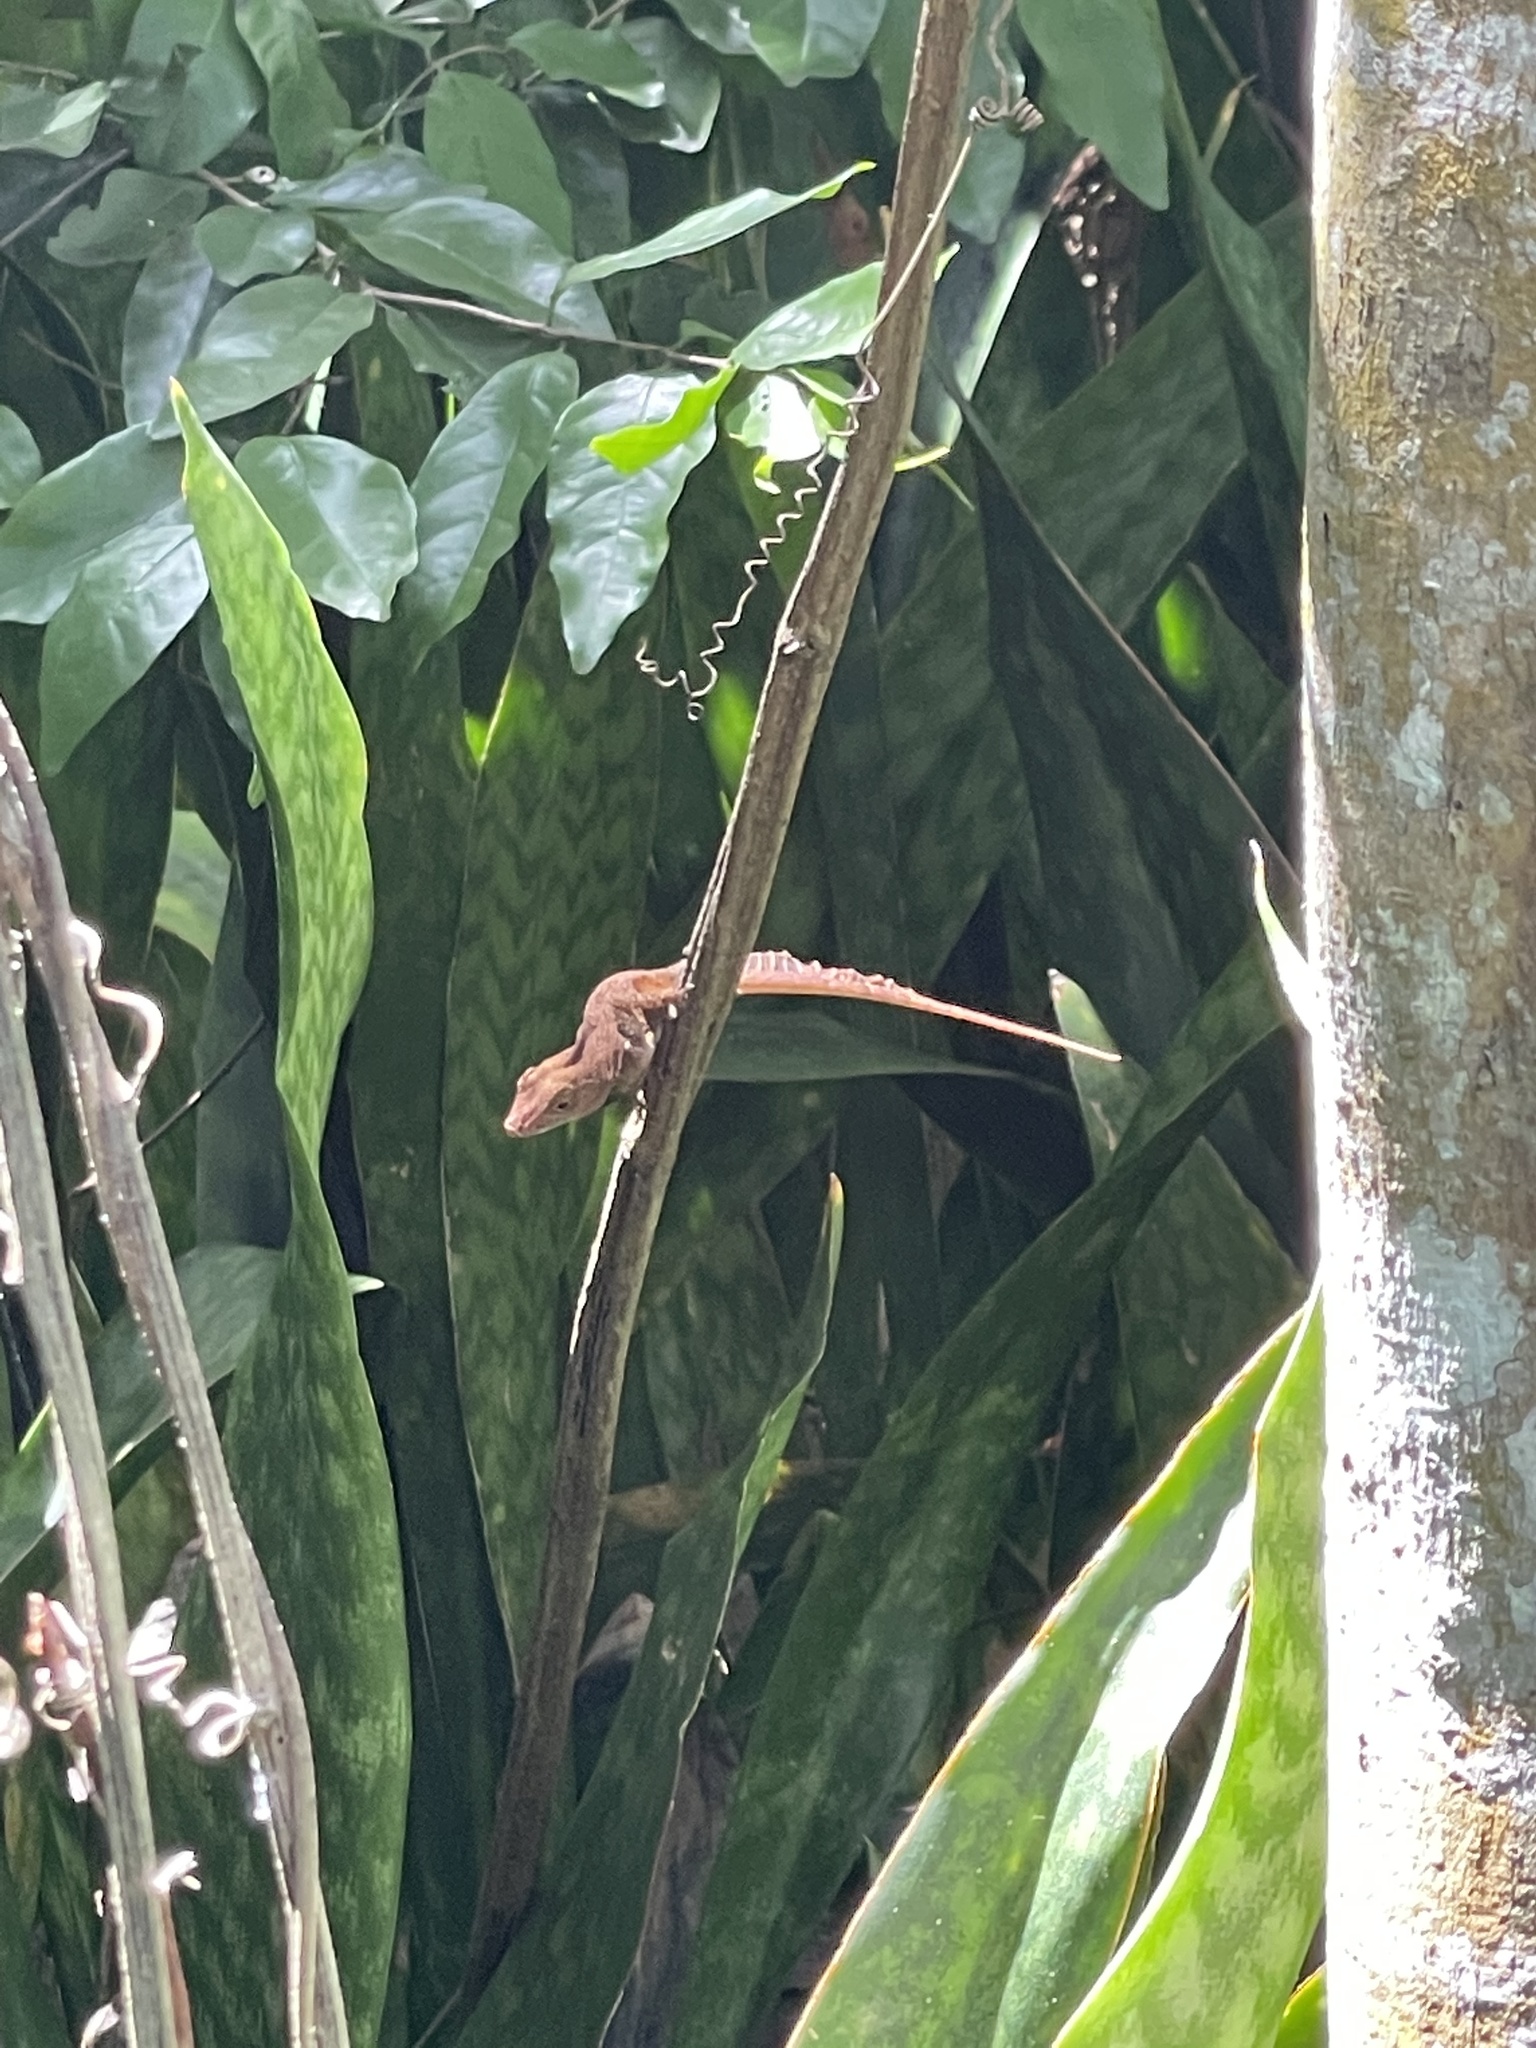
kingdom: Animalia
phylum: Chordata
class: Squamata
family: Dactyloidae
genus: Anolis
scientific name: Anolis cristatellus
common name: Crested anole
